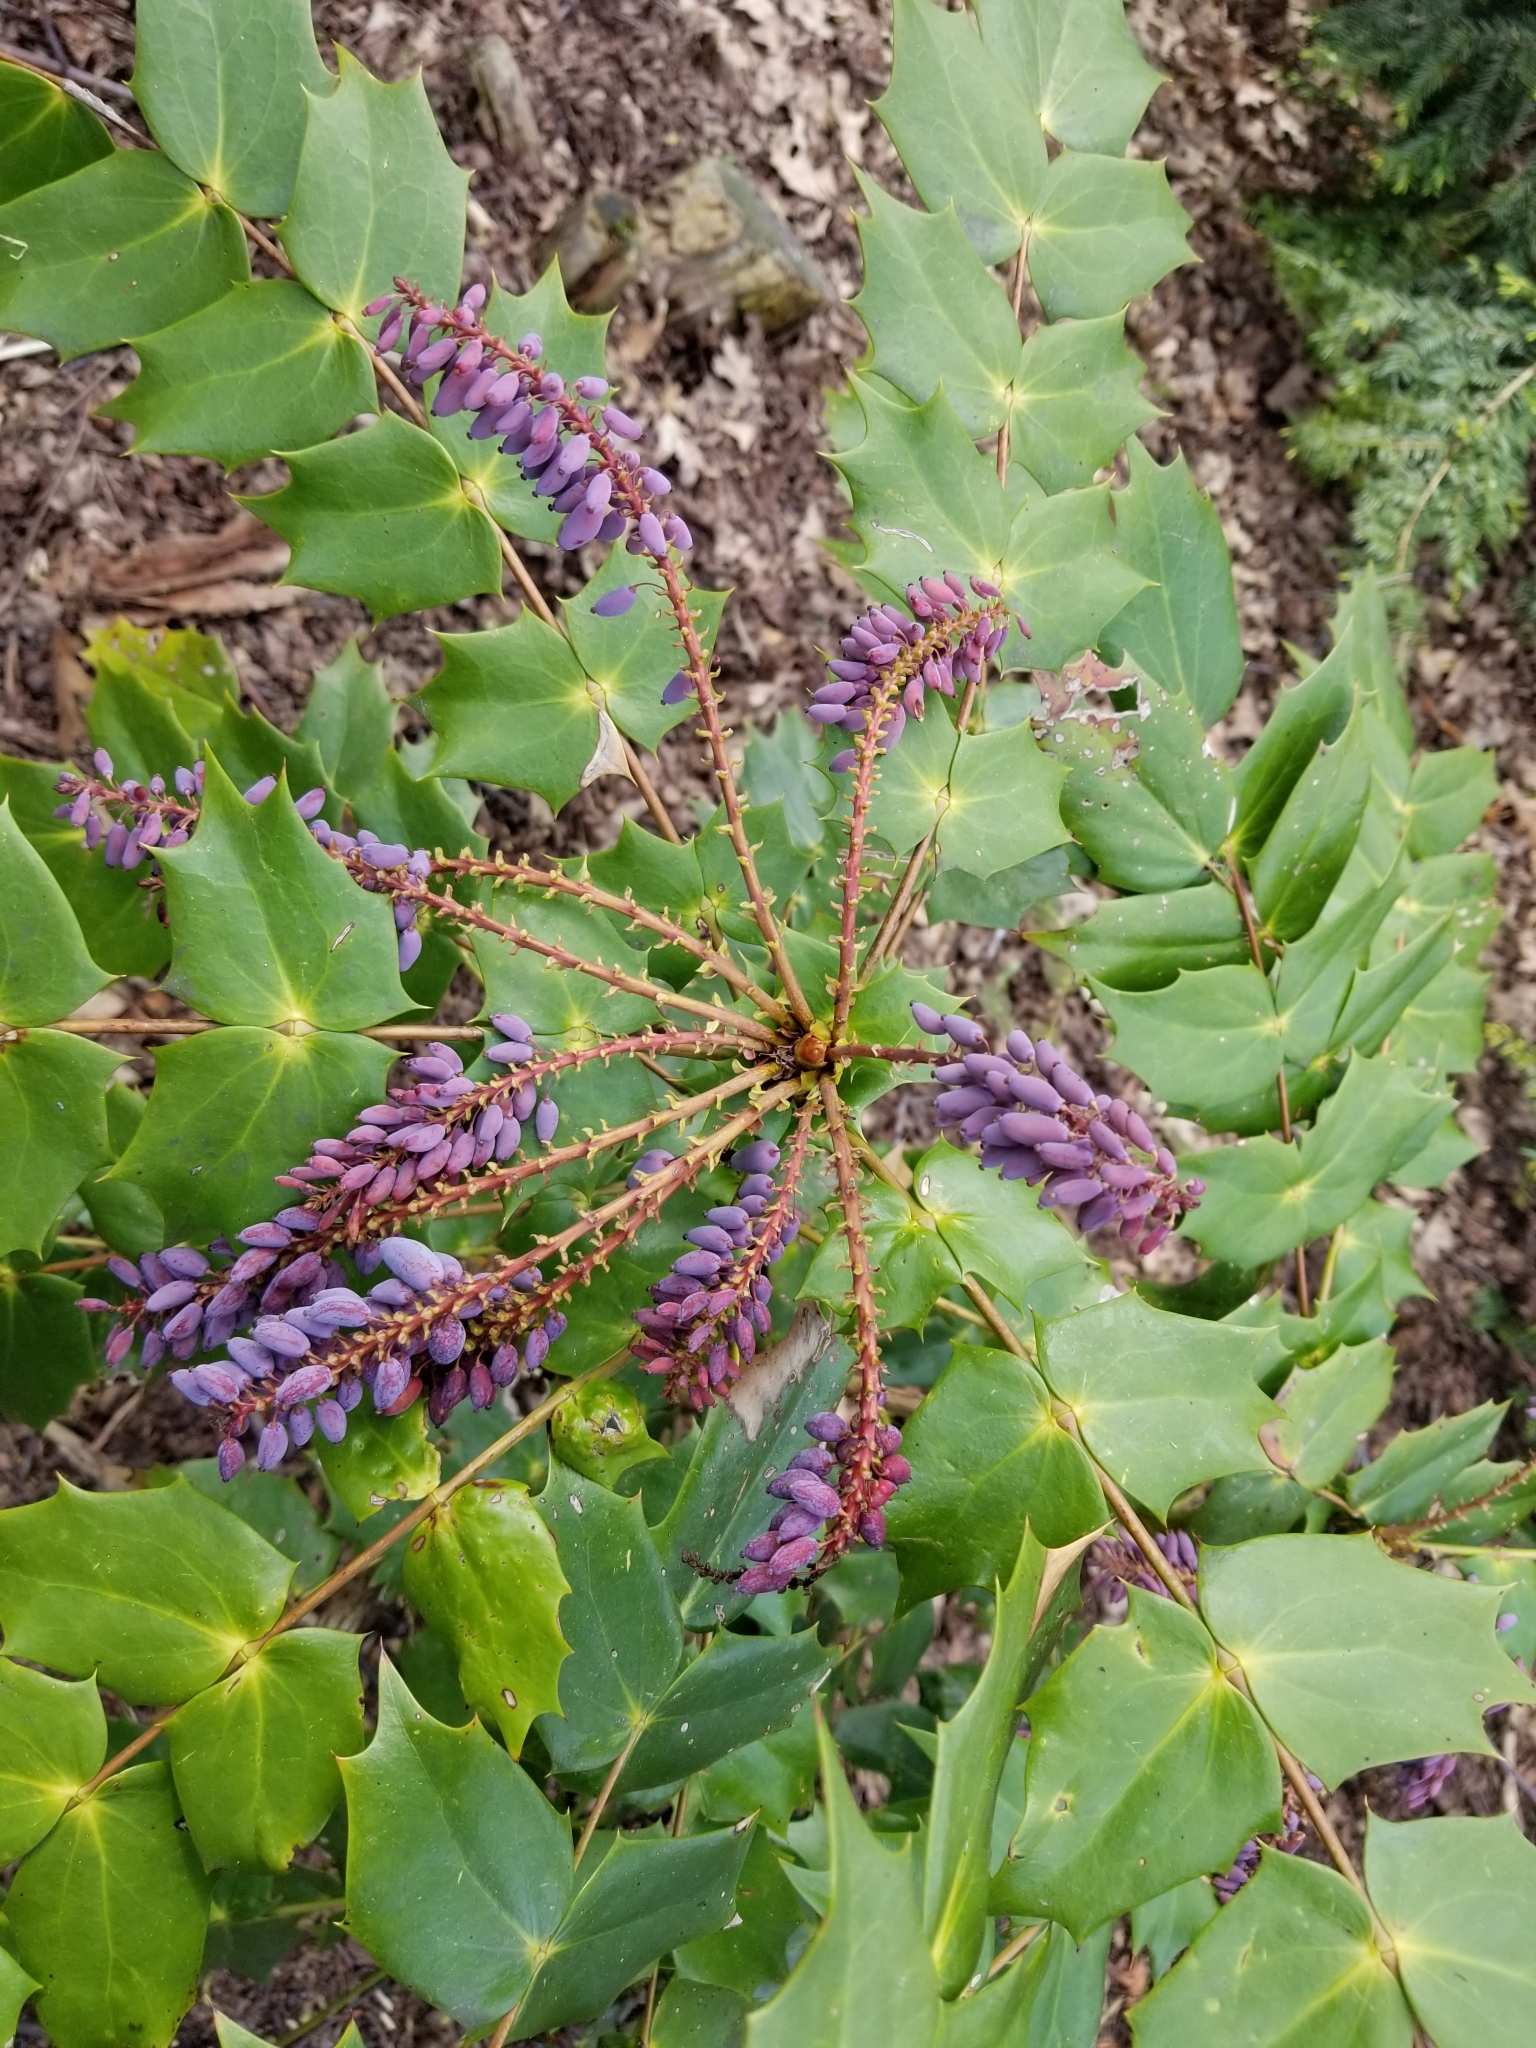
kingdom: Plantae
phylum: Tracheophyta
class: Magnoliopsida
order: Ranunculales
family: Berberidaceae
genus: Mahonia
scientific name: Mahonia bealei
